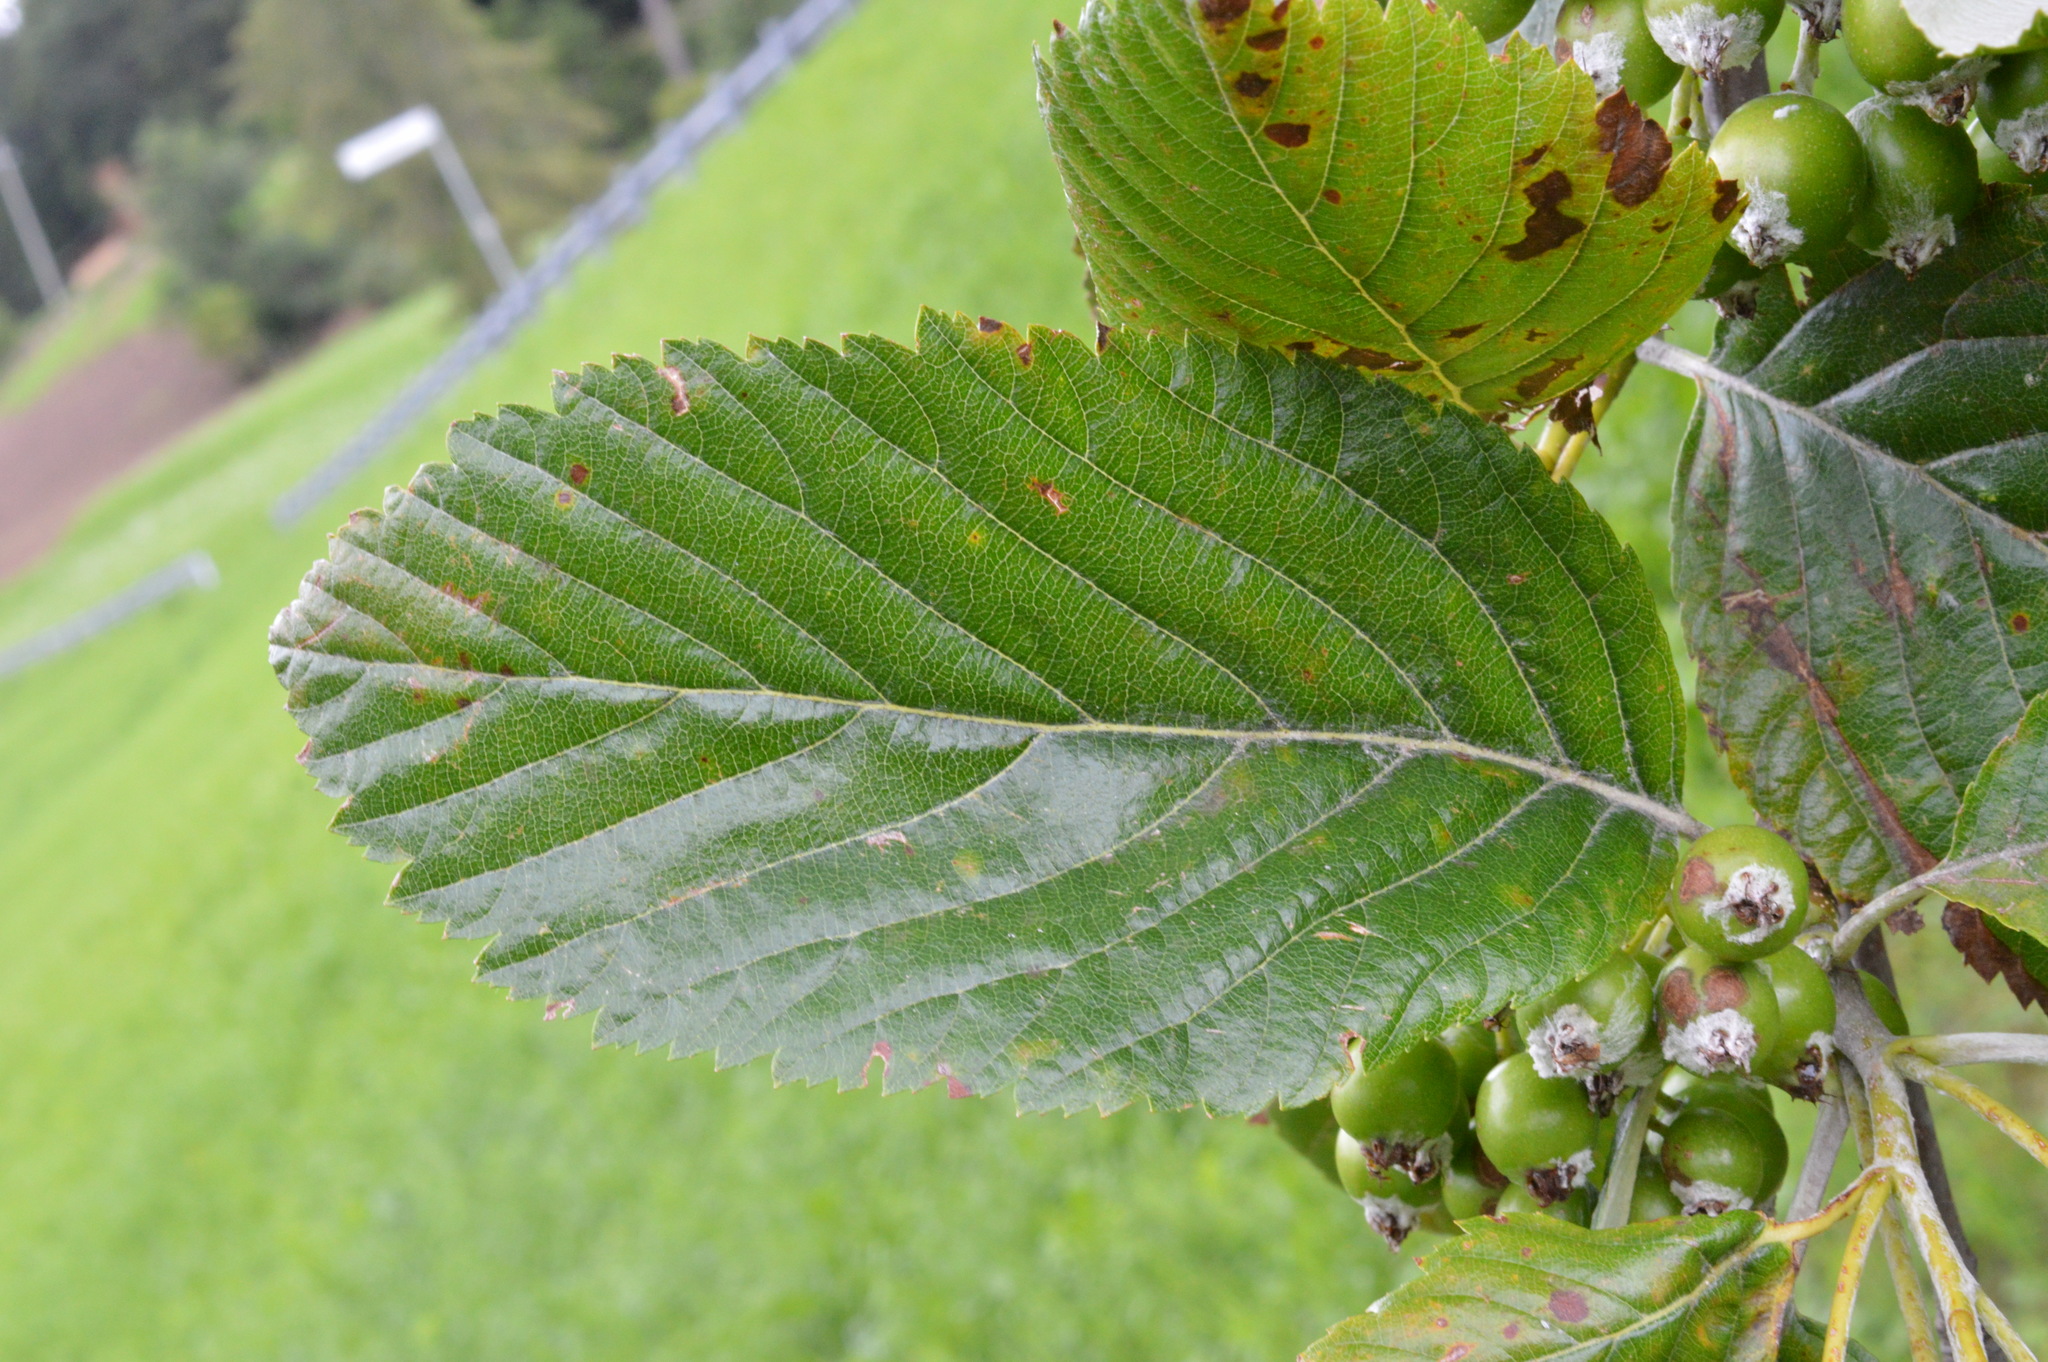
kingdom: Plantae
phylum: Tracheophyta
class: Magnoliopsida
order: Rosales
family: Rosaceae
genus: Aria
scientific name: Aria edulis
